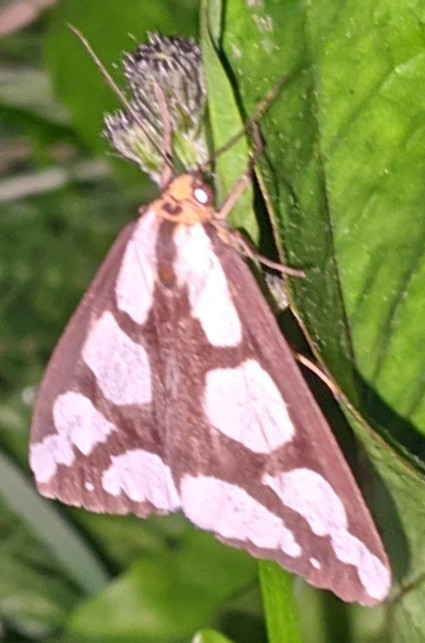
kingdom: Animalia
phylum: Arthropoda
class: Insecta
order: Lepidoptera
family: Erebidae
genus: Haploa
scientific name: Haploa lecontei
